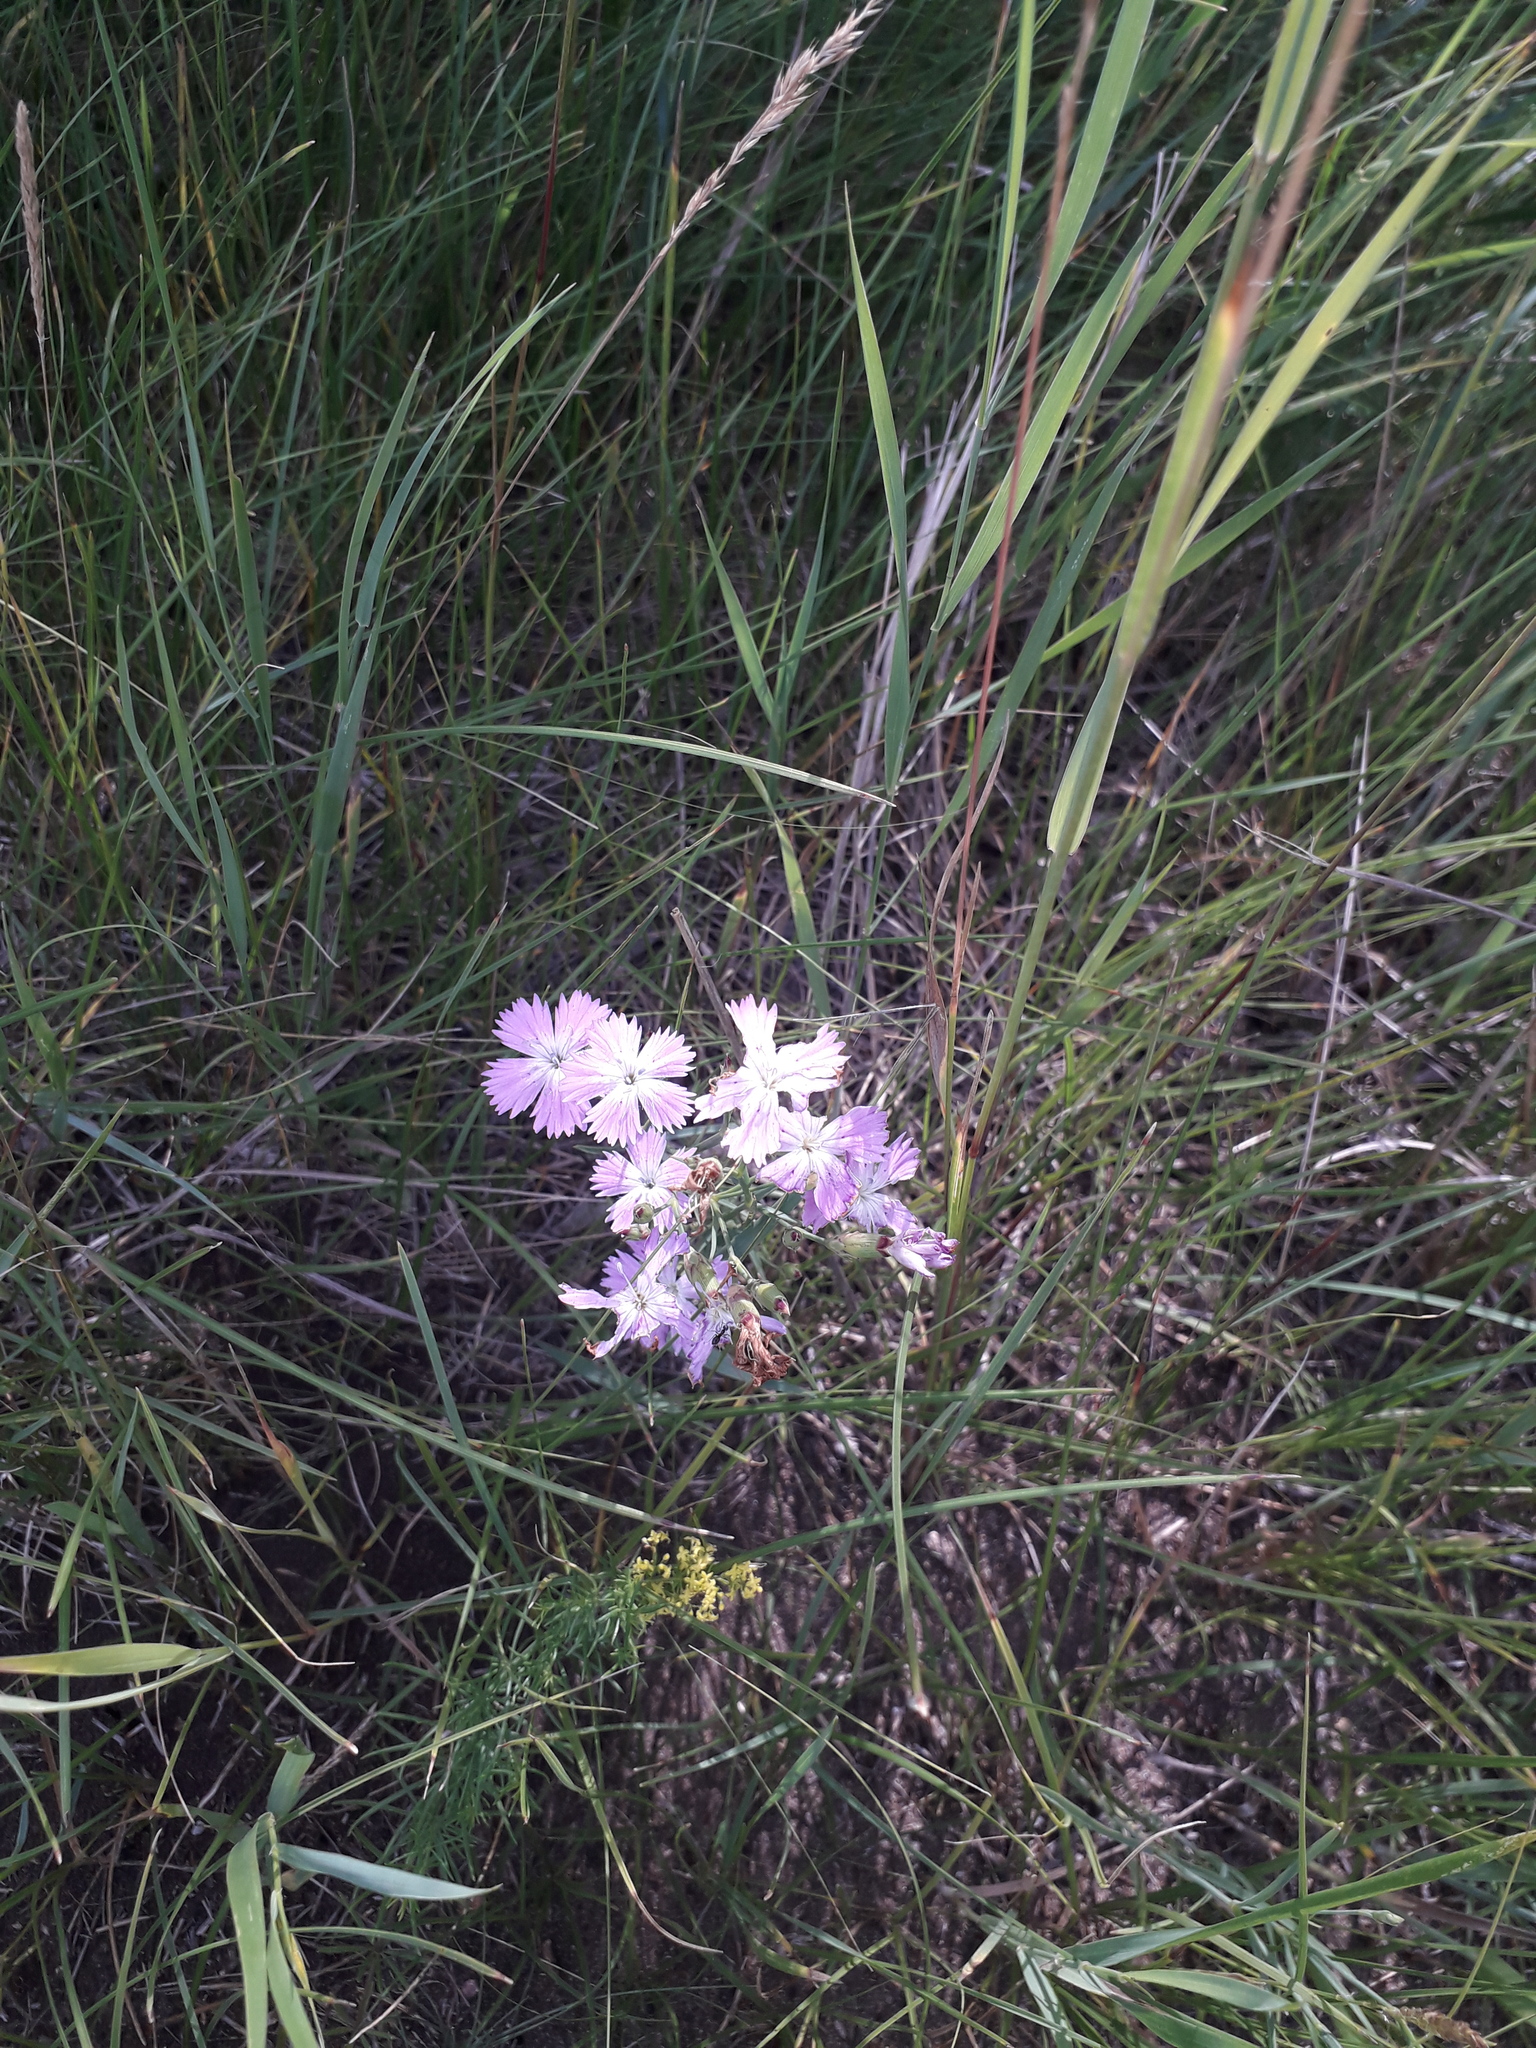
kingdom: Plantae
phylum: Tracheophyta
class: Magnoliopsida
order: Caryophyllales
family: Caryophyllaceae
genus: Dianthus
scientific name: Dianthus chinensis
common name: Rainbow pink
